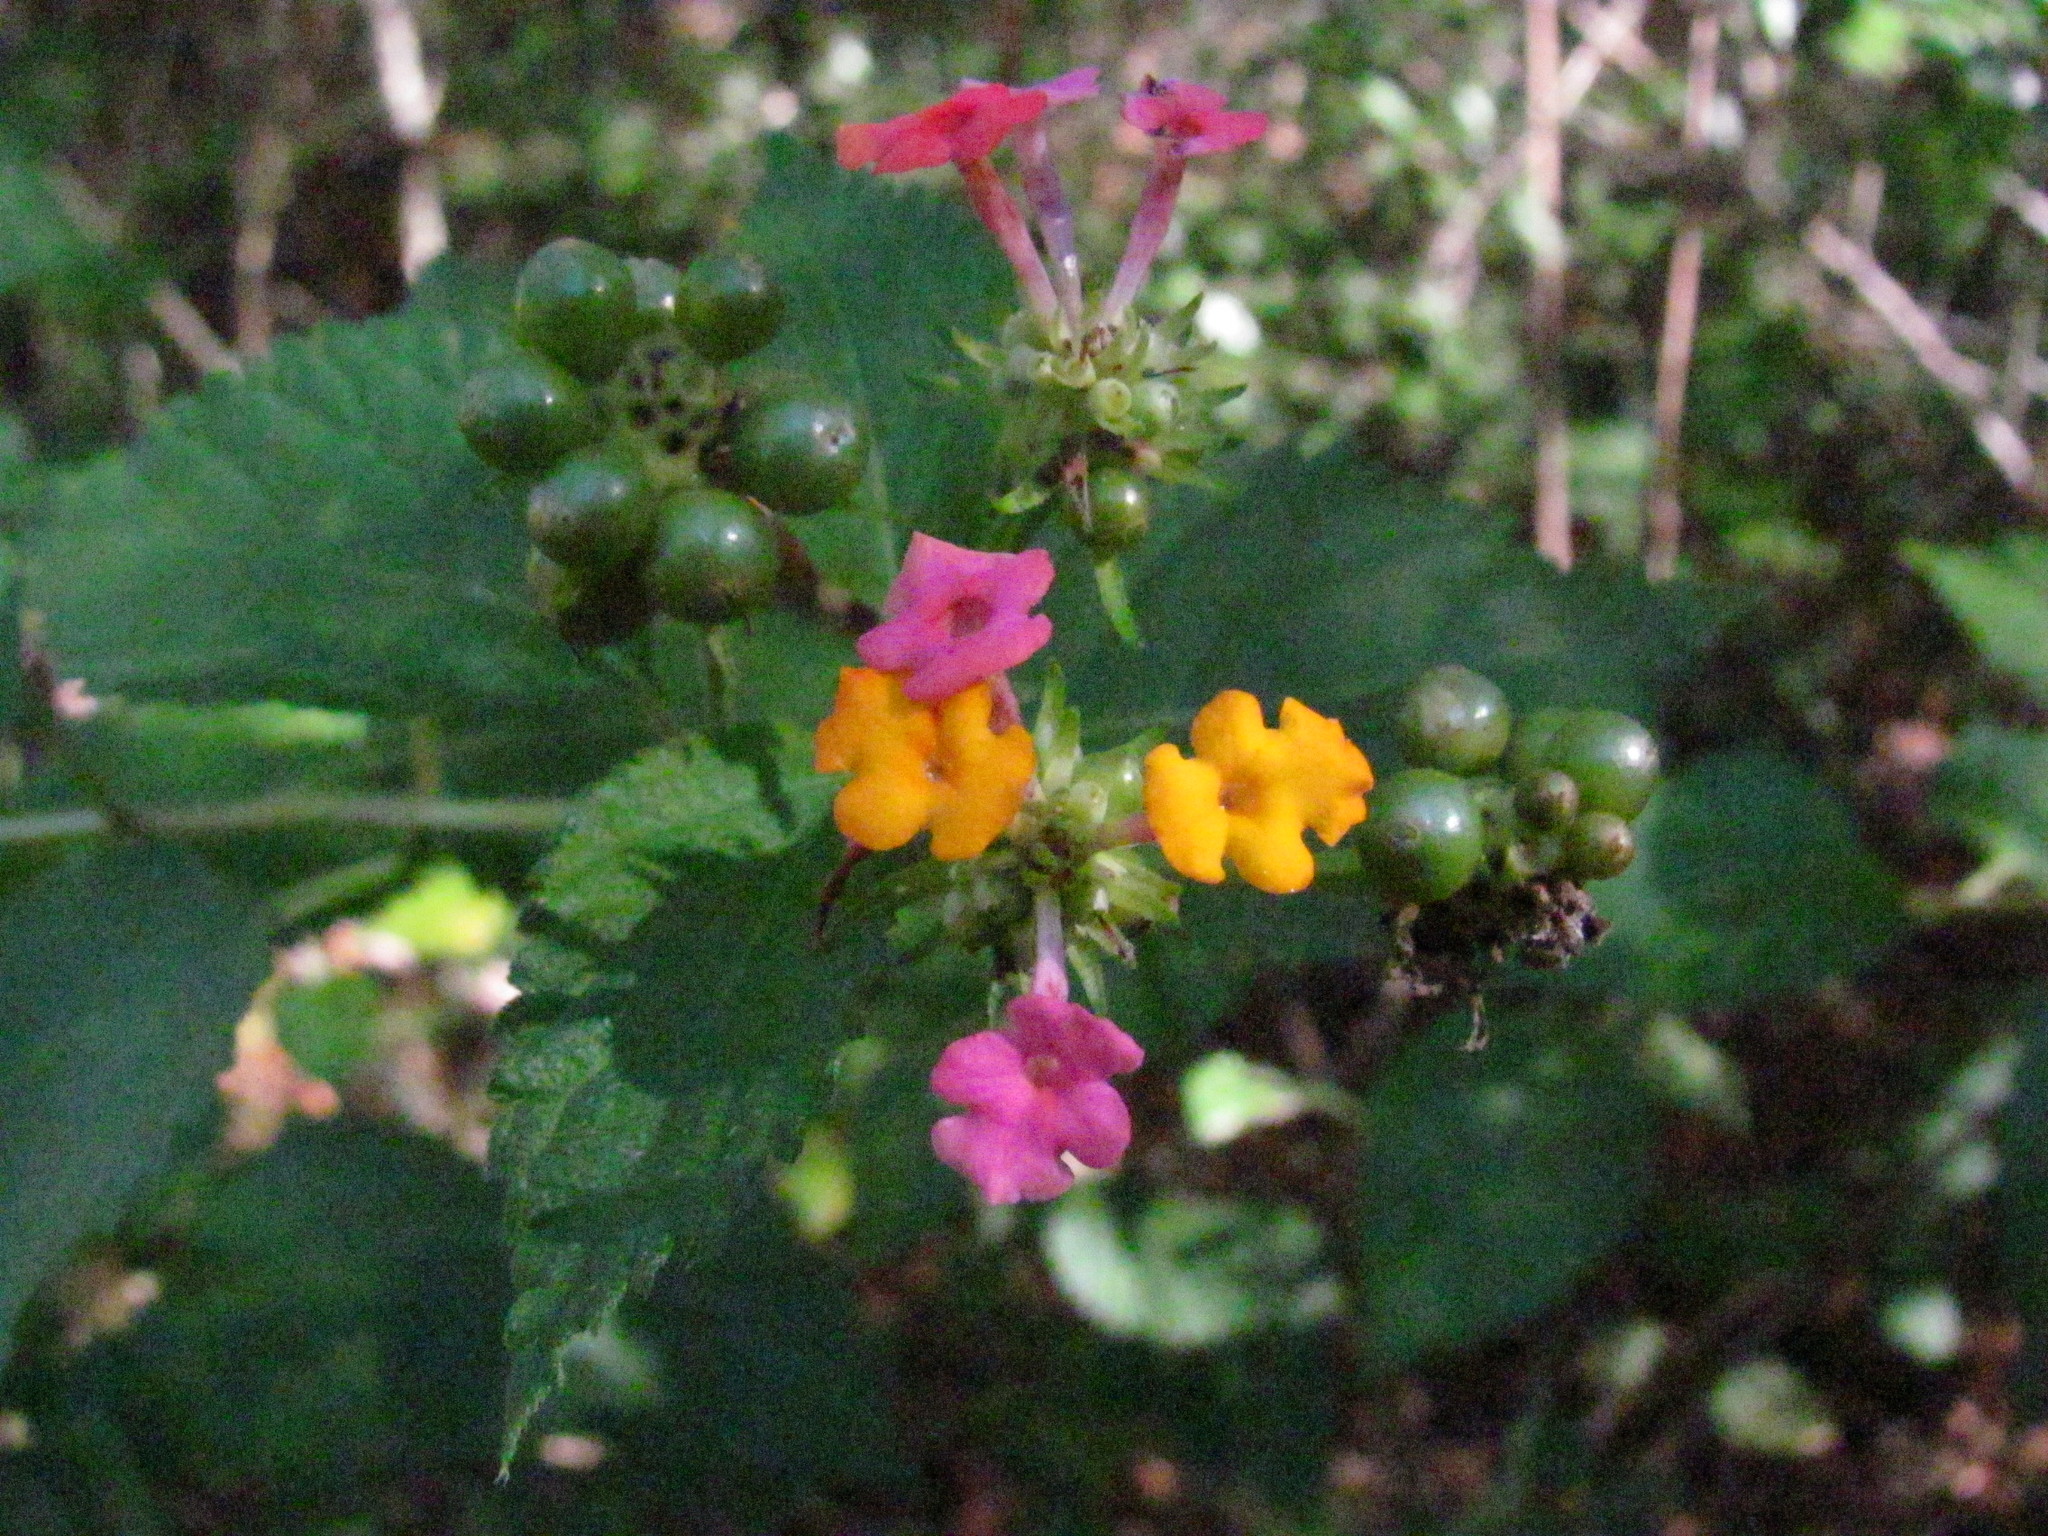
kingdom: Plantae
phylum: Tracheophyta
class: Magnoliopsida
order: Lamiales
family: Verbenaceae
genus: Lantana
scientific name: Lantana camara
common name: Lantana
